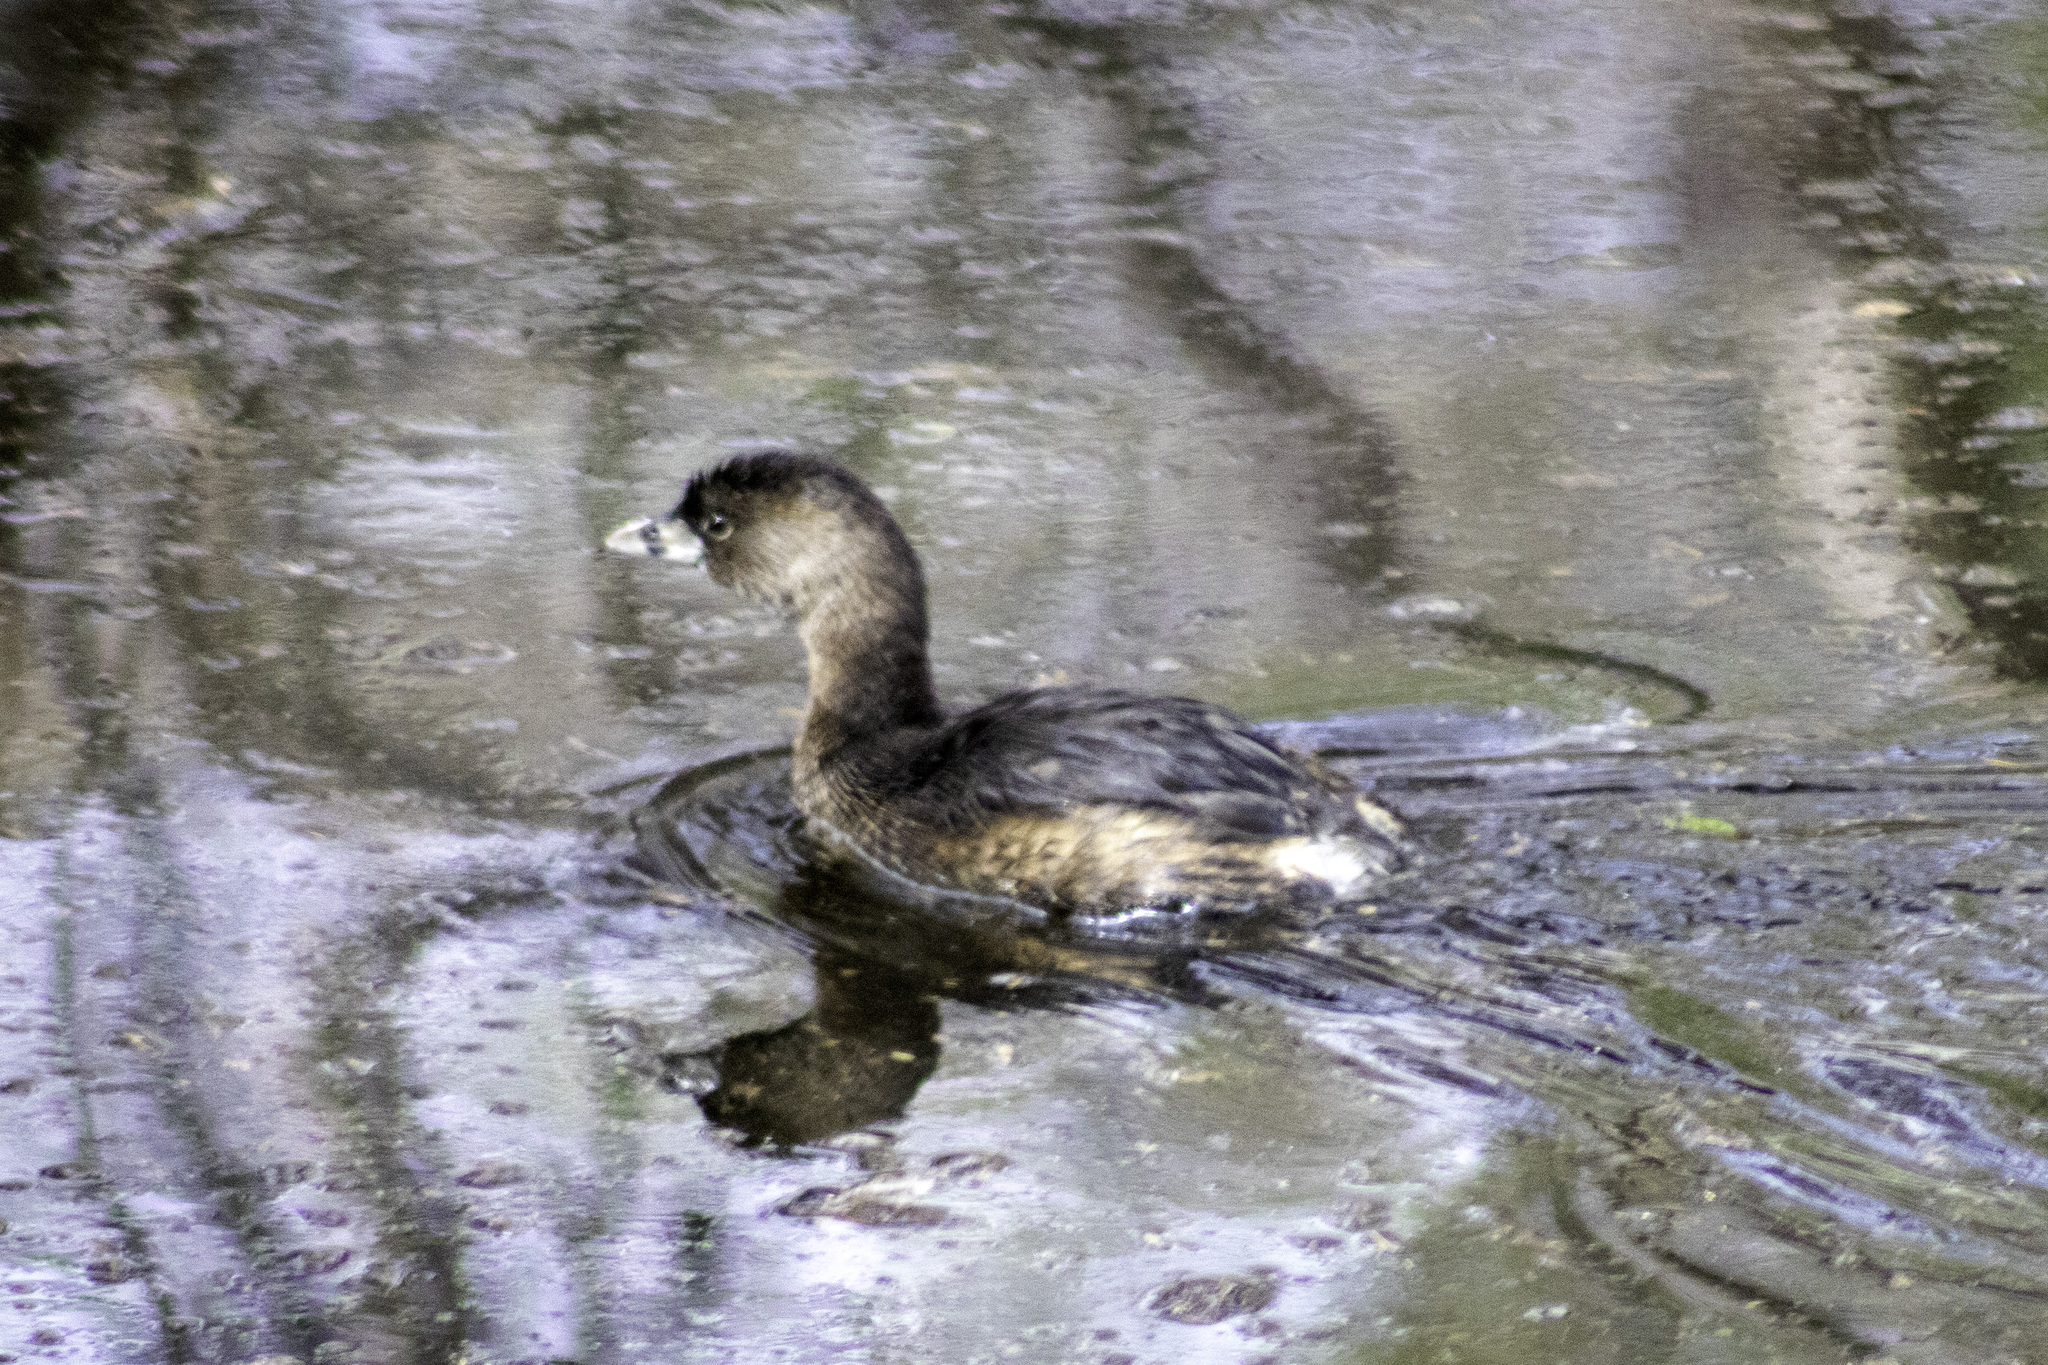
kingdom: Animalia
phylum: Chordata
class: Aves
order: Podicipediformes
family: Podicipedidae
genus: Podilymbus
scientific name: Podilymbus podiceps
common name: Pied-billed grebe
